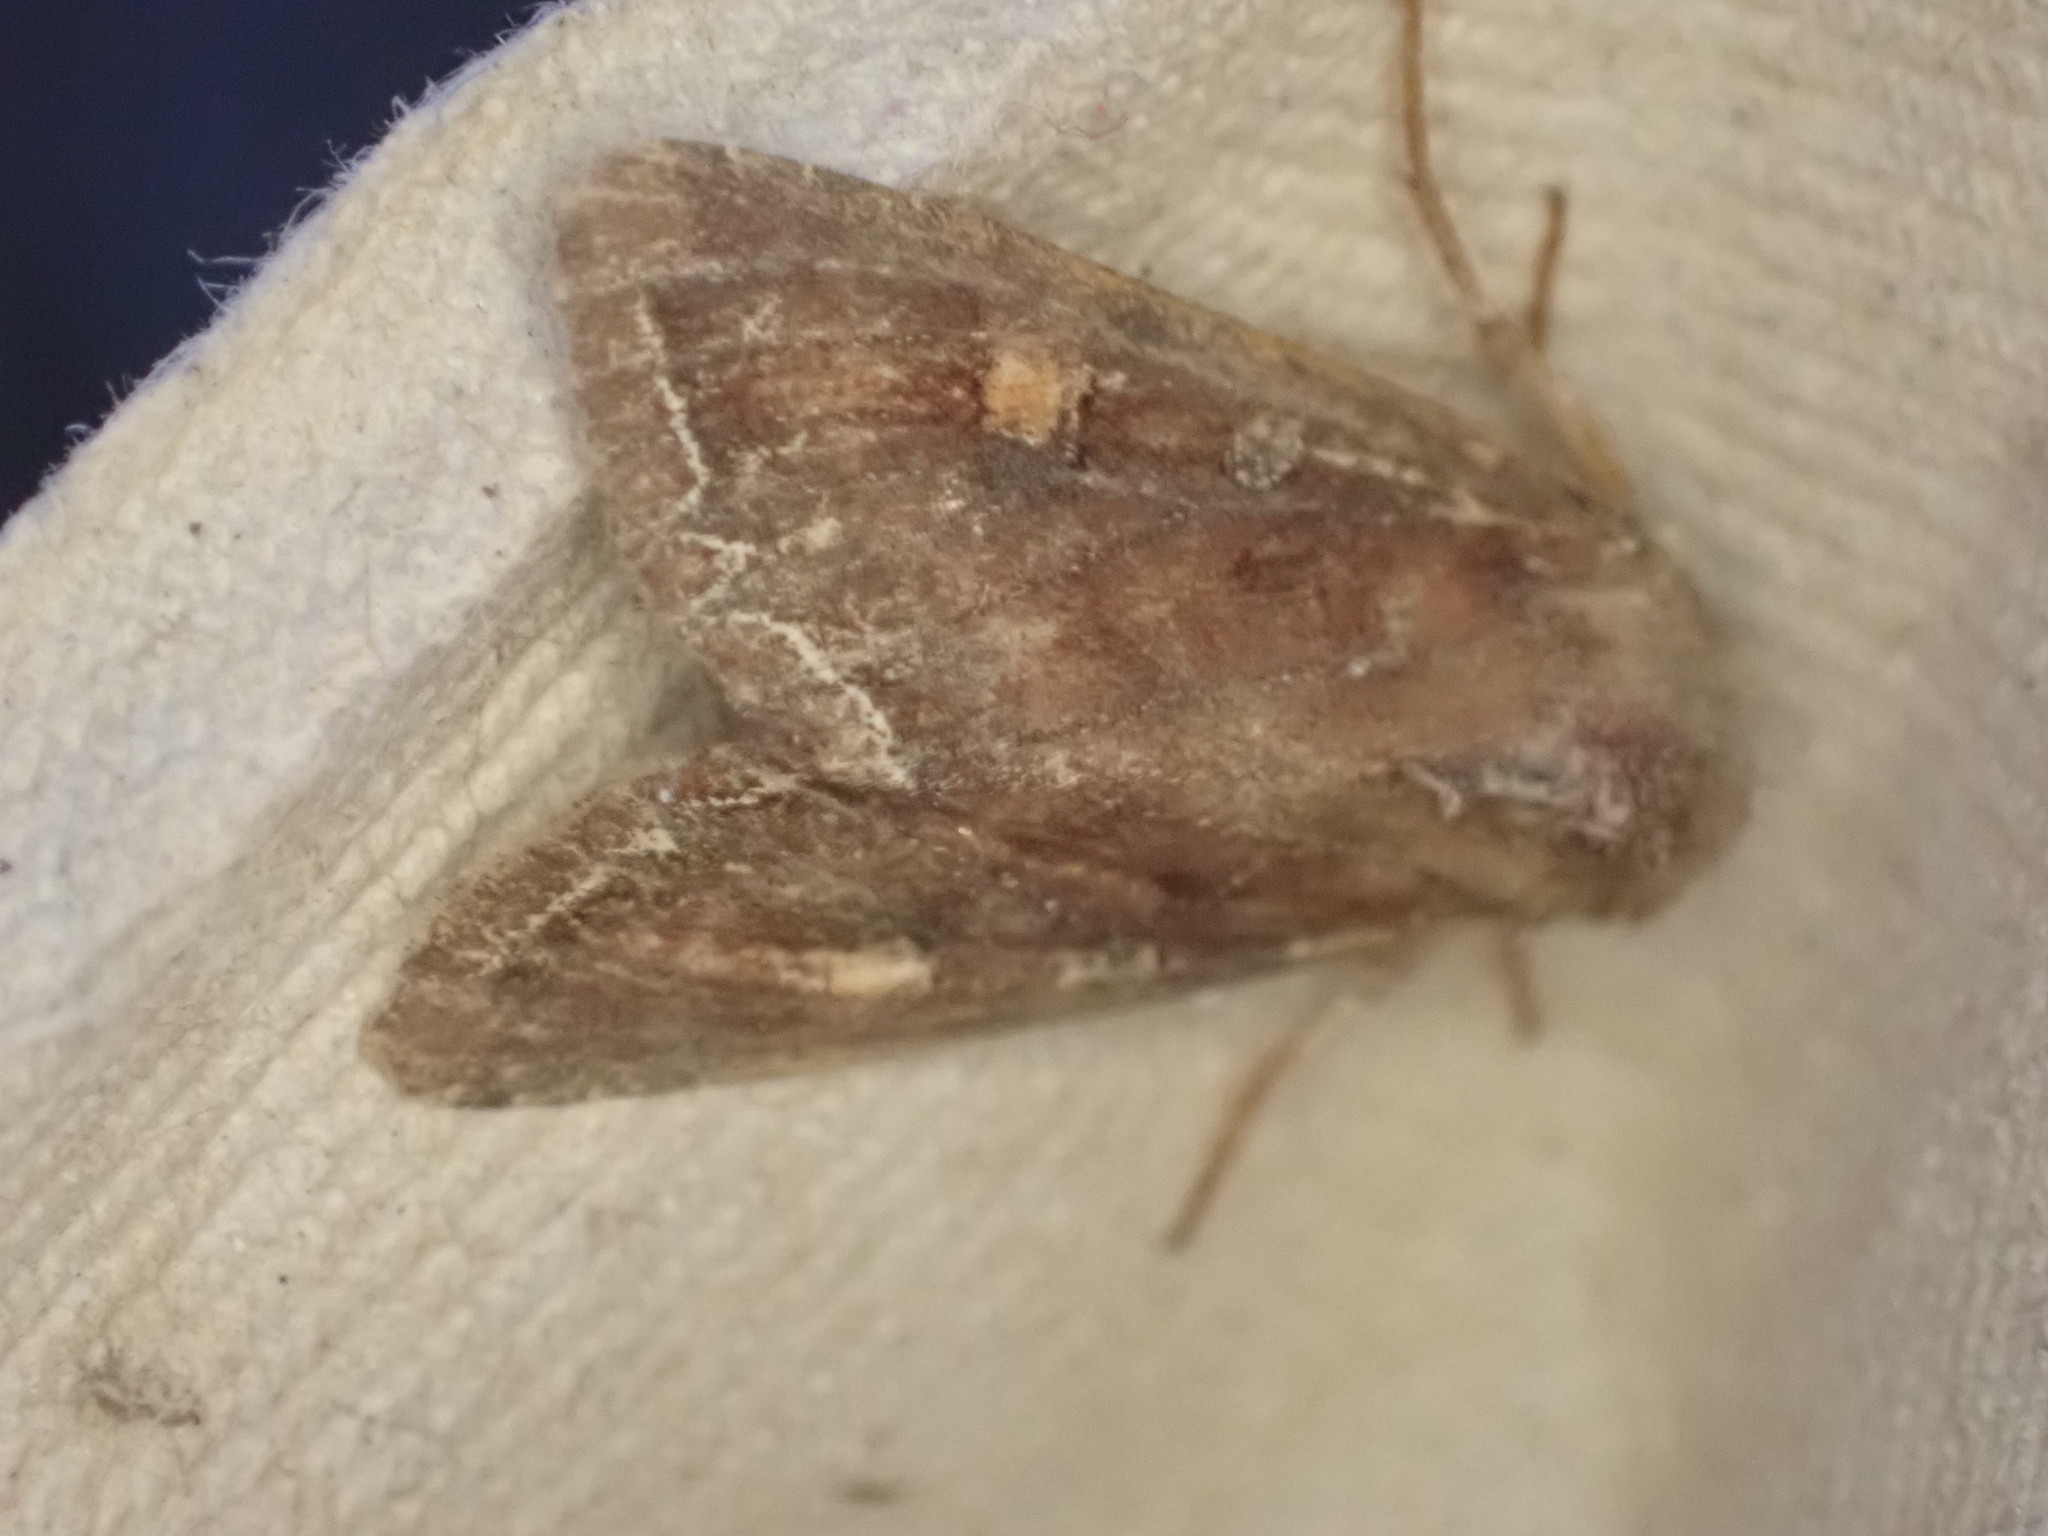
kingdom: Animalia
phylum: Arthropoda
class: Insecta
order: Lepidoptera
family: Noctuidae
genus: Lacanobia
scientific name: Lacanobia oleracea
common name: Bright-line brown-eye
